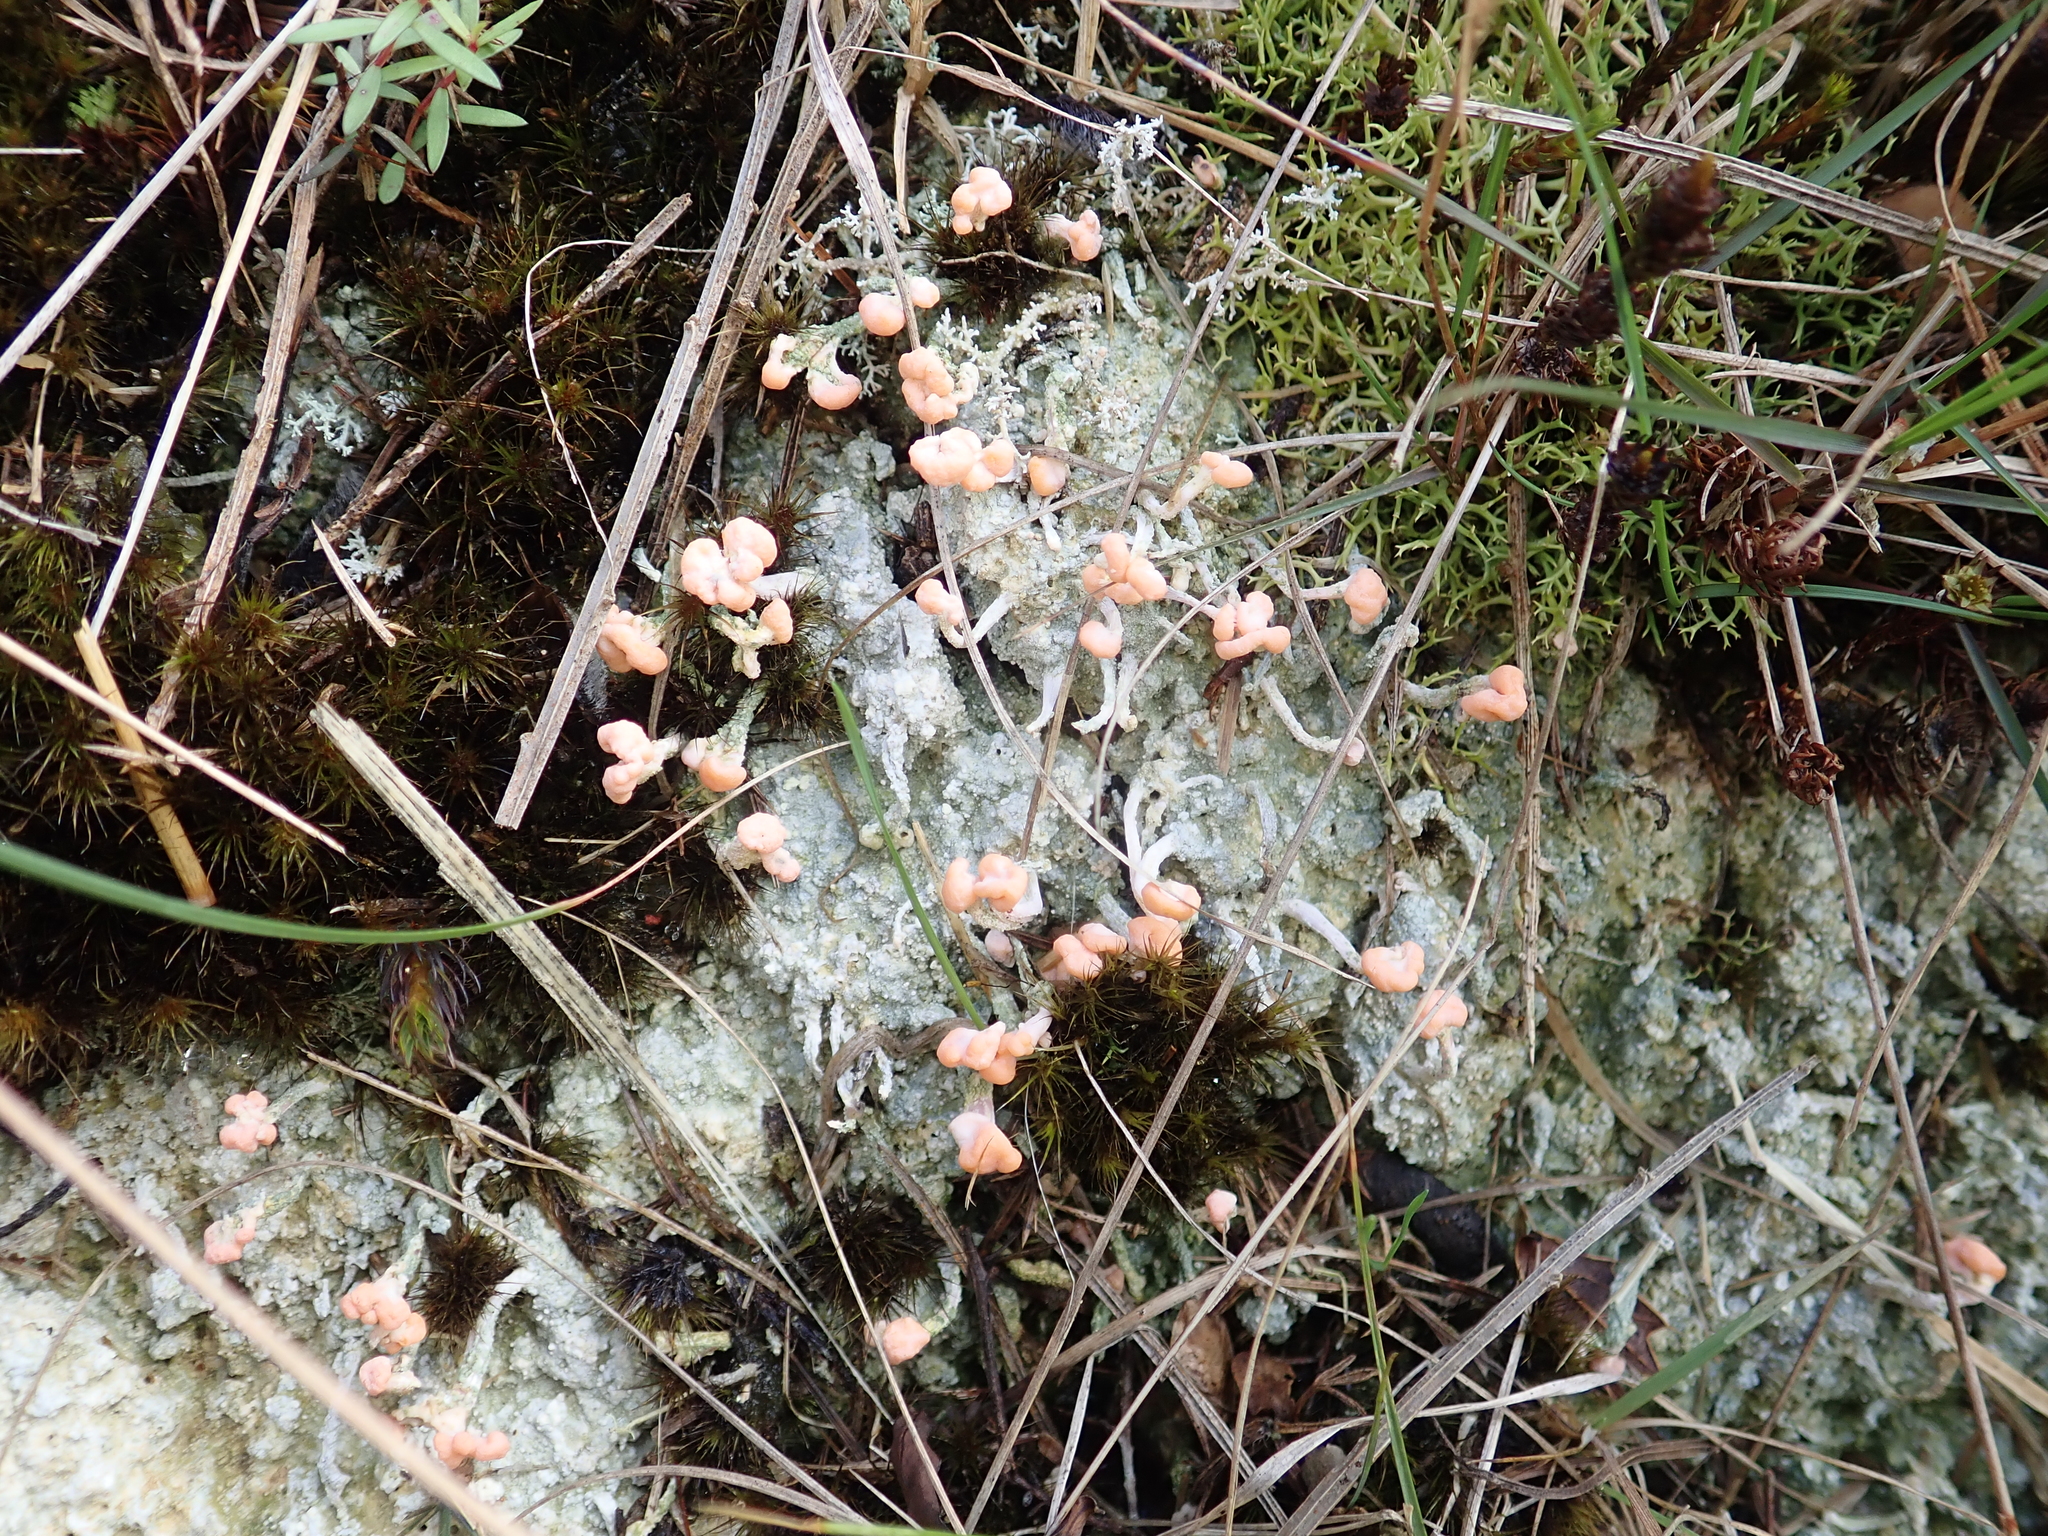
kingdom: Fungi
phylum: Ascomycota
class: Lecanoromycetes
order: Pertusariales
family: Icmadophilaceae
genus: Dibaeis
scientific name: Dibaeis arcuata
